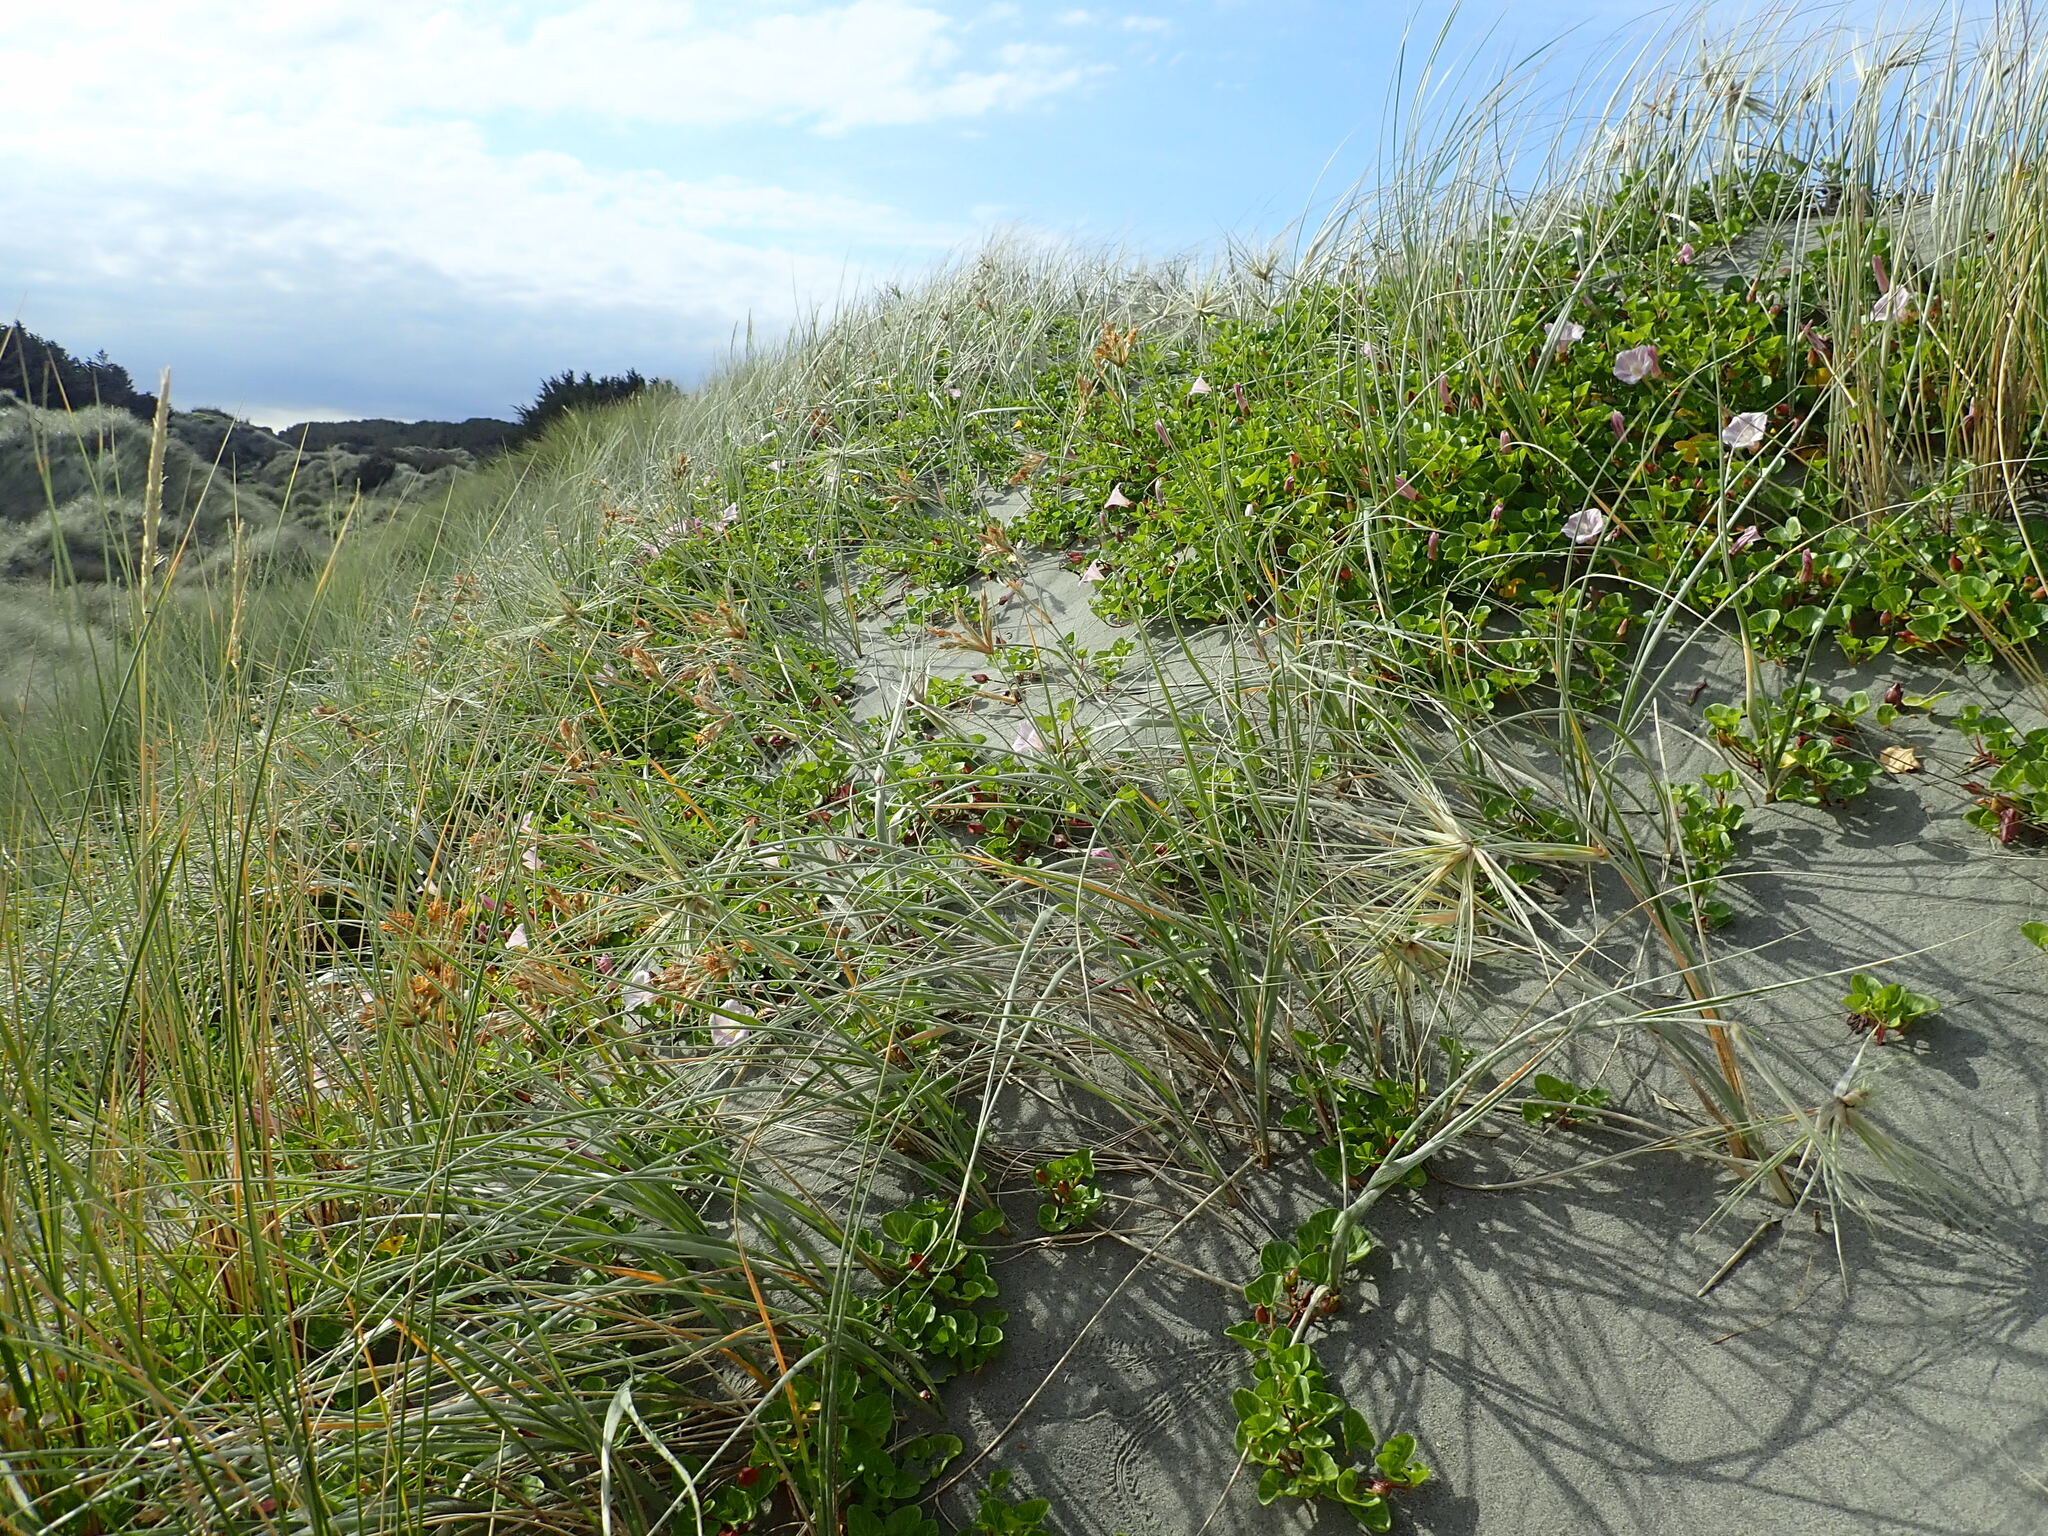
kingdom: Plantae
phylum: Tracheophyta
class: Magnoliopsida
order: Solanales
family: Convolvulaceae
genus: Calystegia
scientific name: Calystegia soldanella
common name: Sea bindweed
